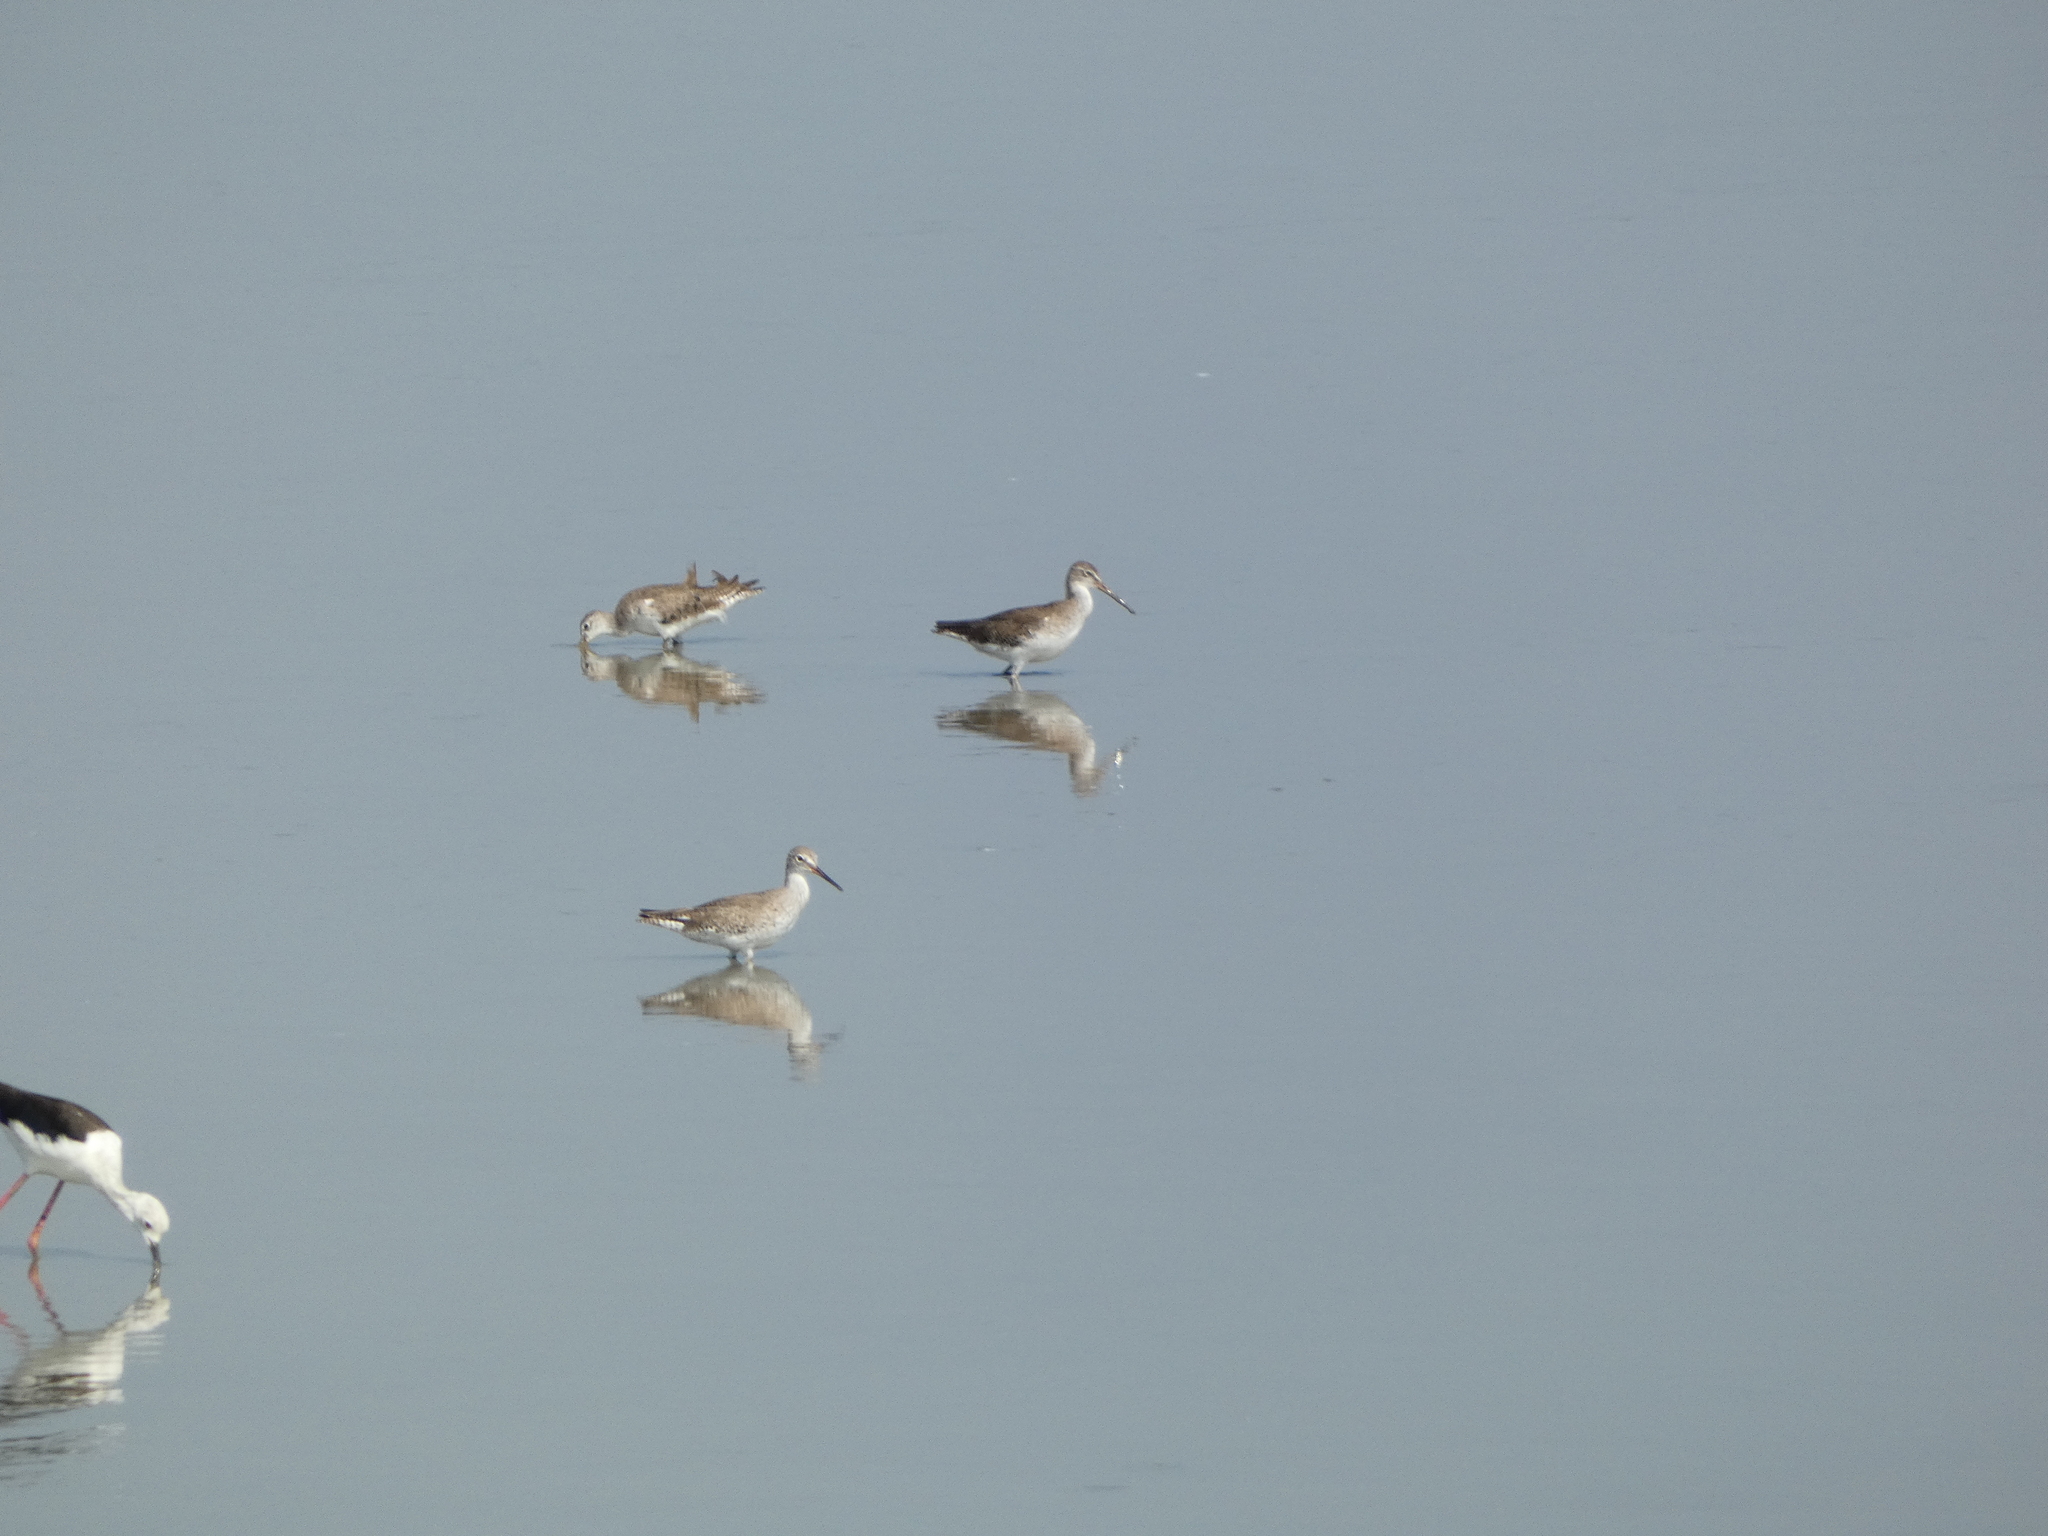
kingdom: Animalia
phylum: Chordata
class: Aves
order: Charadriiformes
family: Scolopacidae
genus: Tringa
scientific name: Tringa totanus
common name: Common redshank
